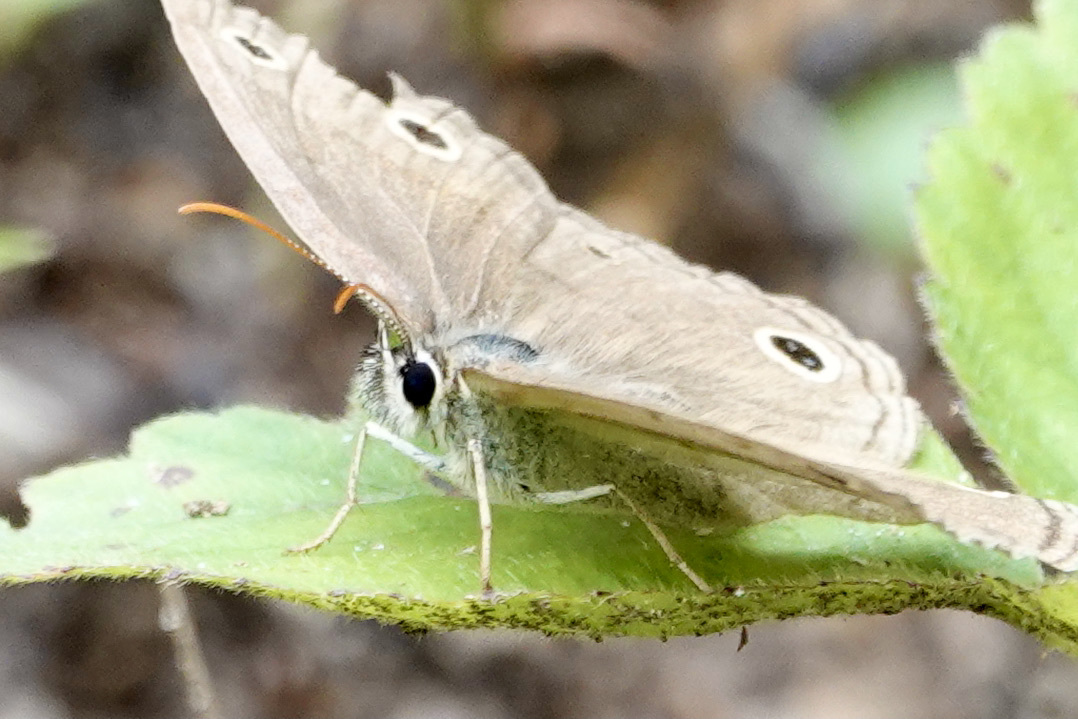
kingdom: Animalia
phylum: Arthropoda
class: Insecta
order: Lepidoptera
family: Nymphalidae
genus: Euptychia
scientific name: Euptychia cymela
